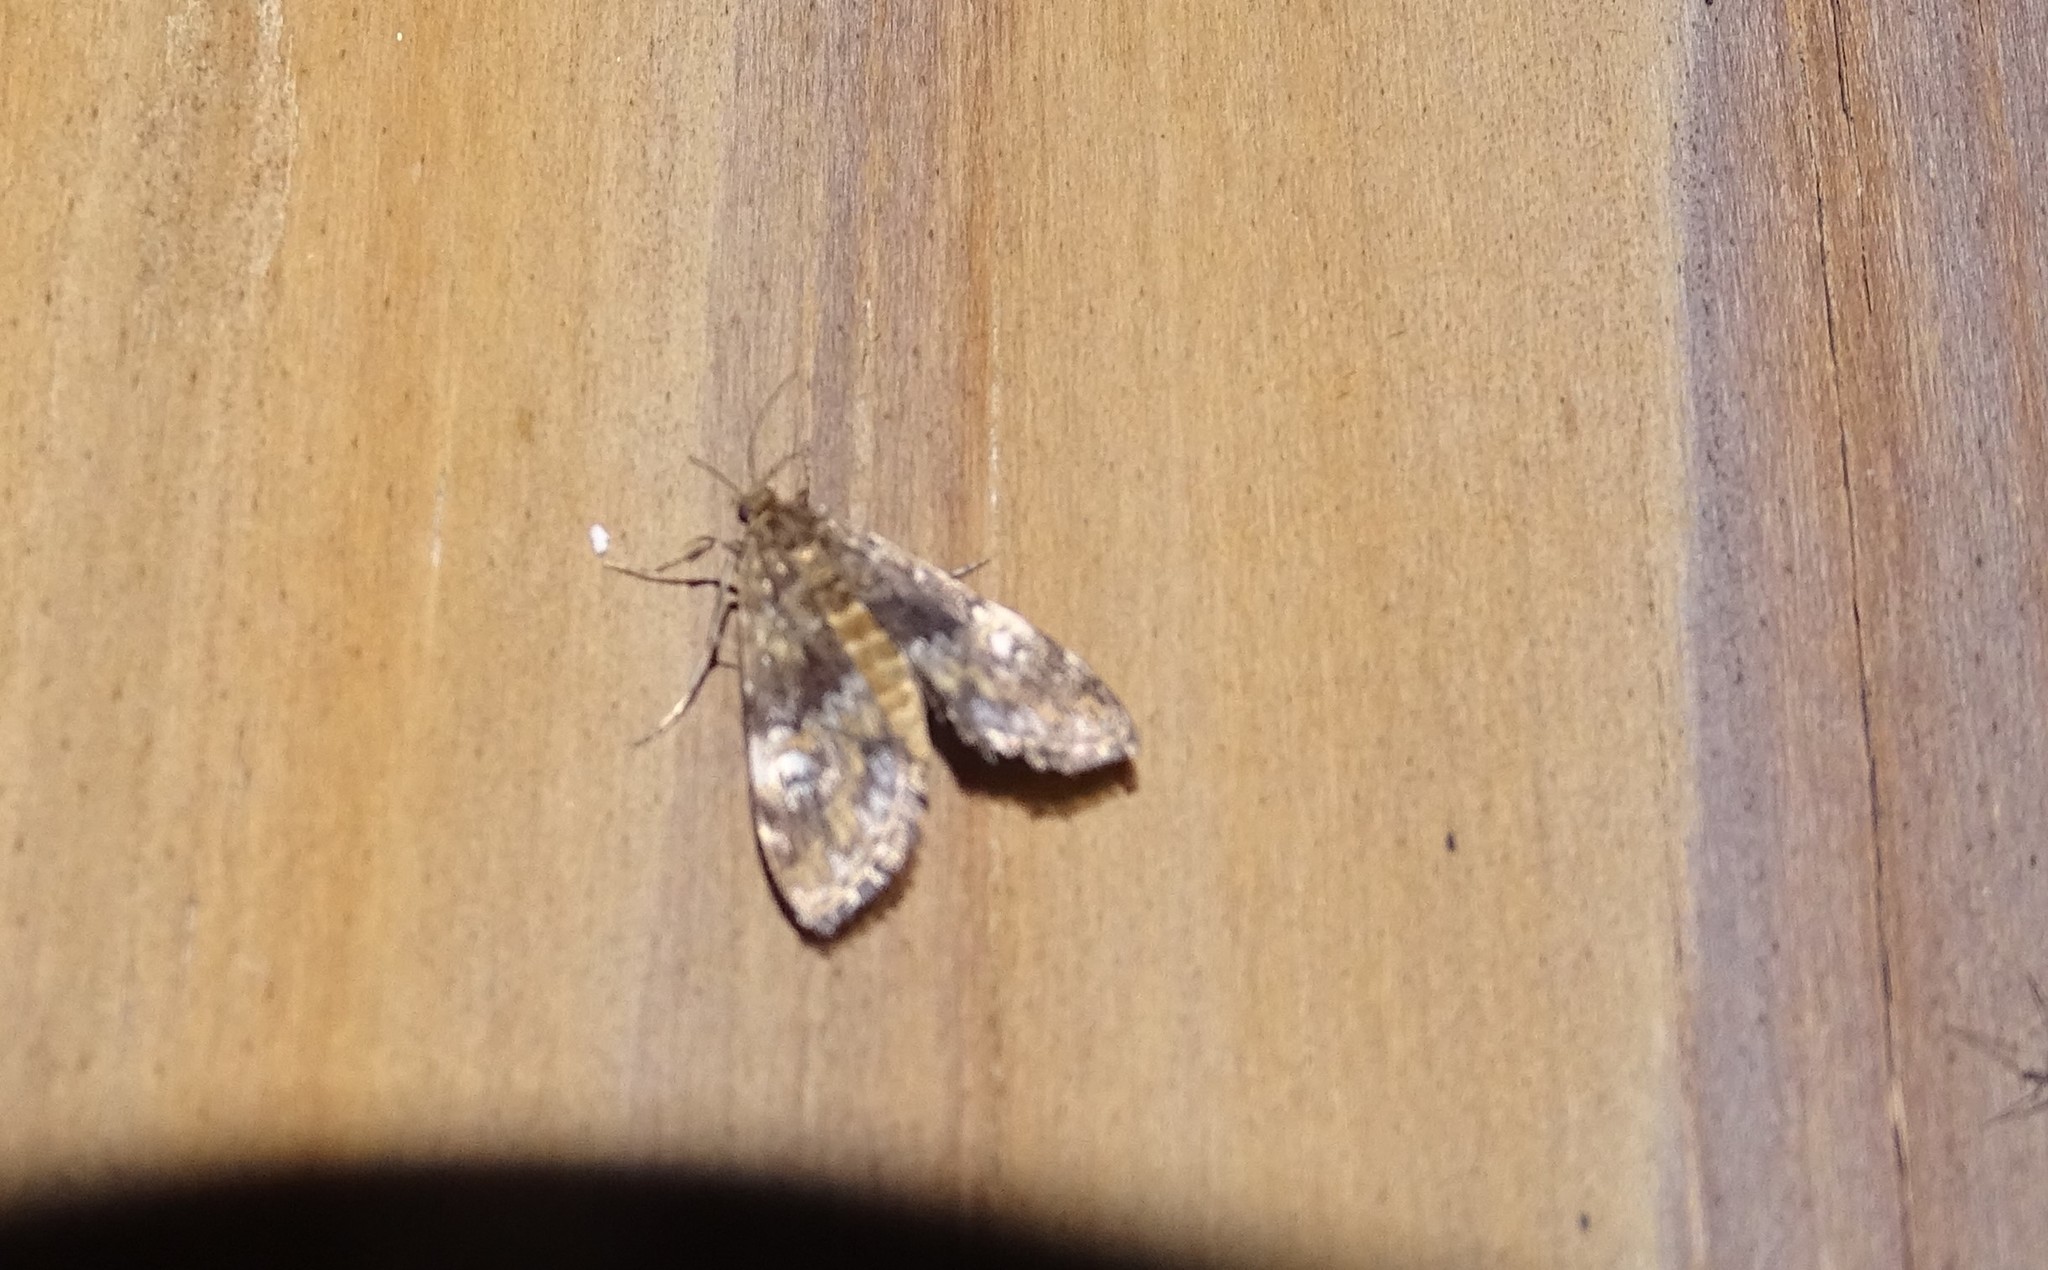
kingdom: Animalia
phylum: Arthropoda
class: Insecta
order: Lepidoptera
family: Crambidae
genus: Elophila
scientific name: Elophila obliteralis
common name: Waterlily leafcutter moth
